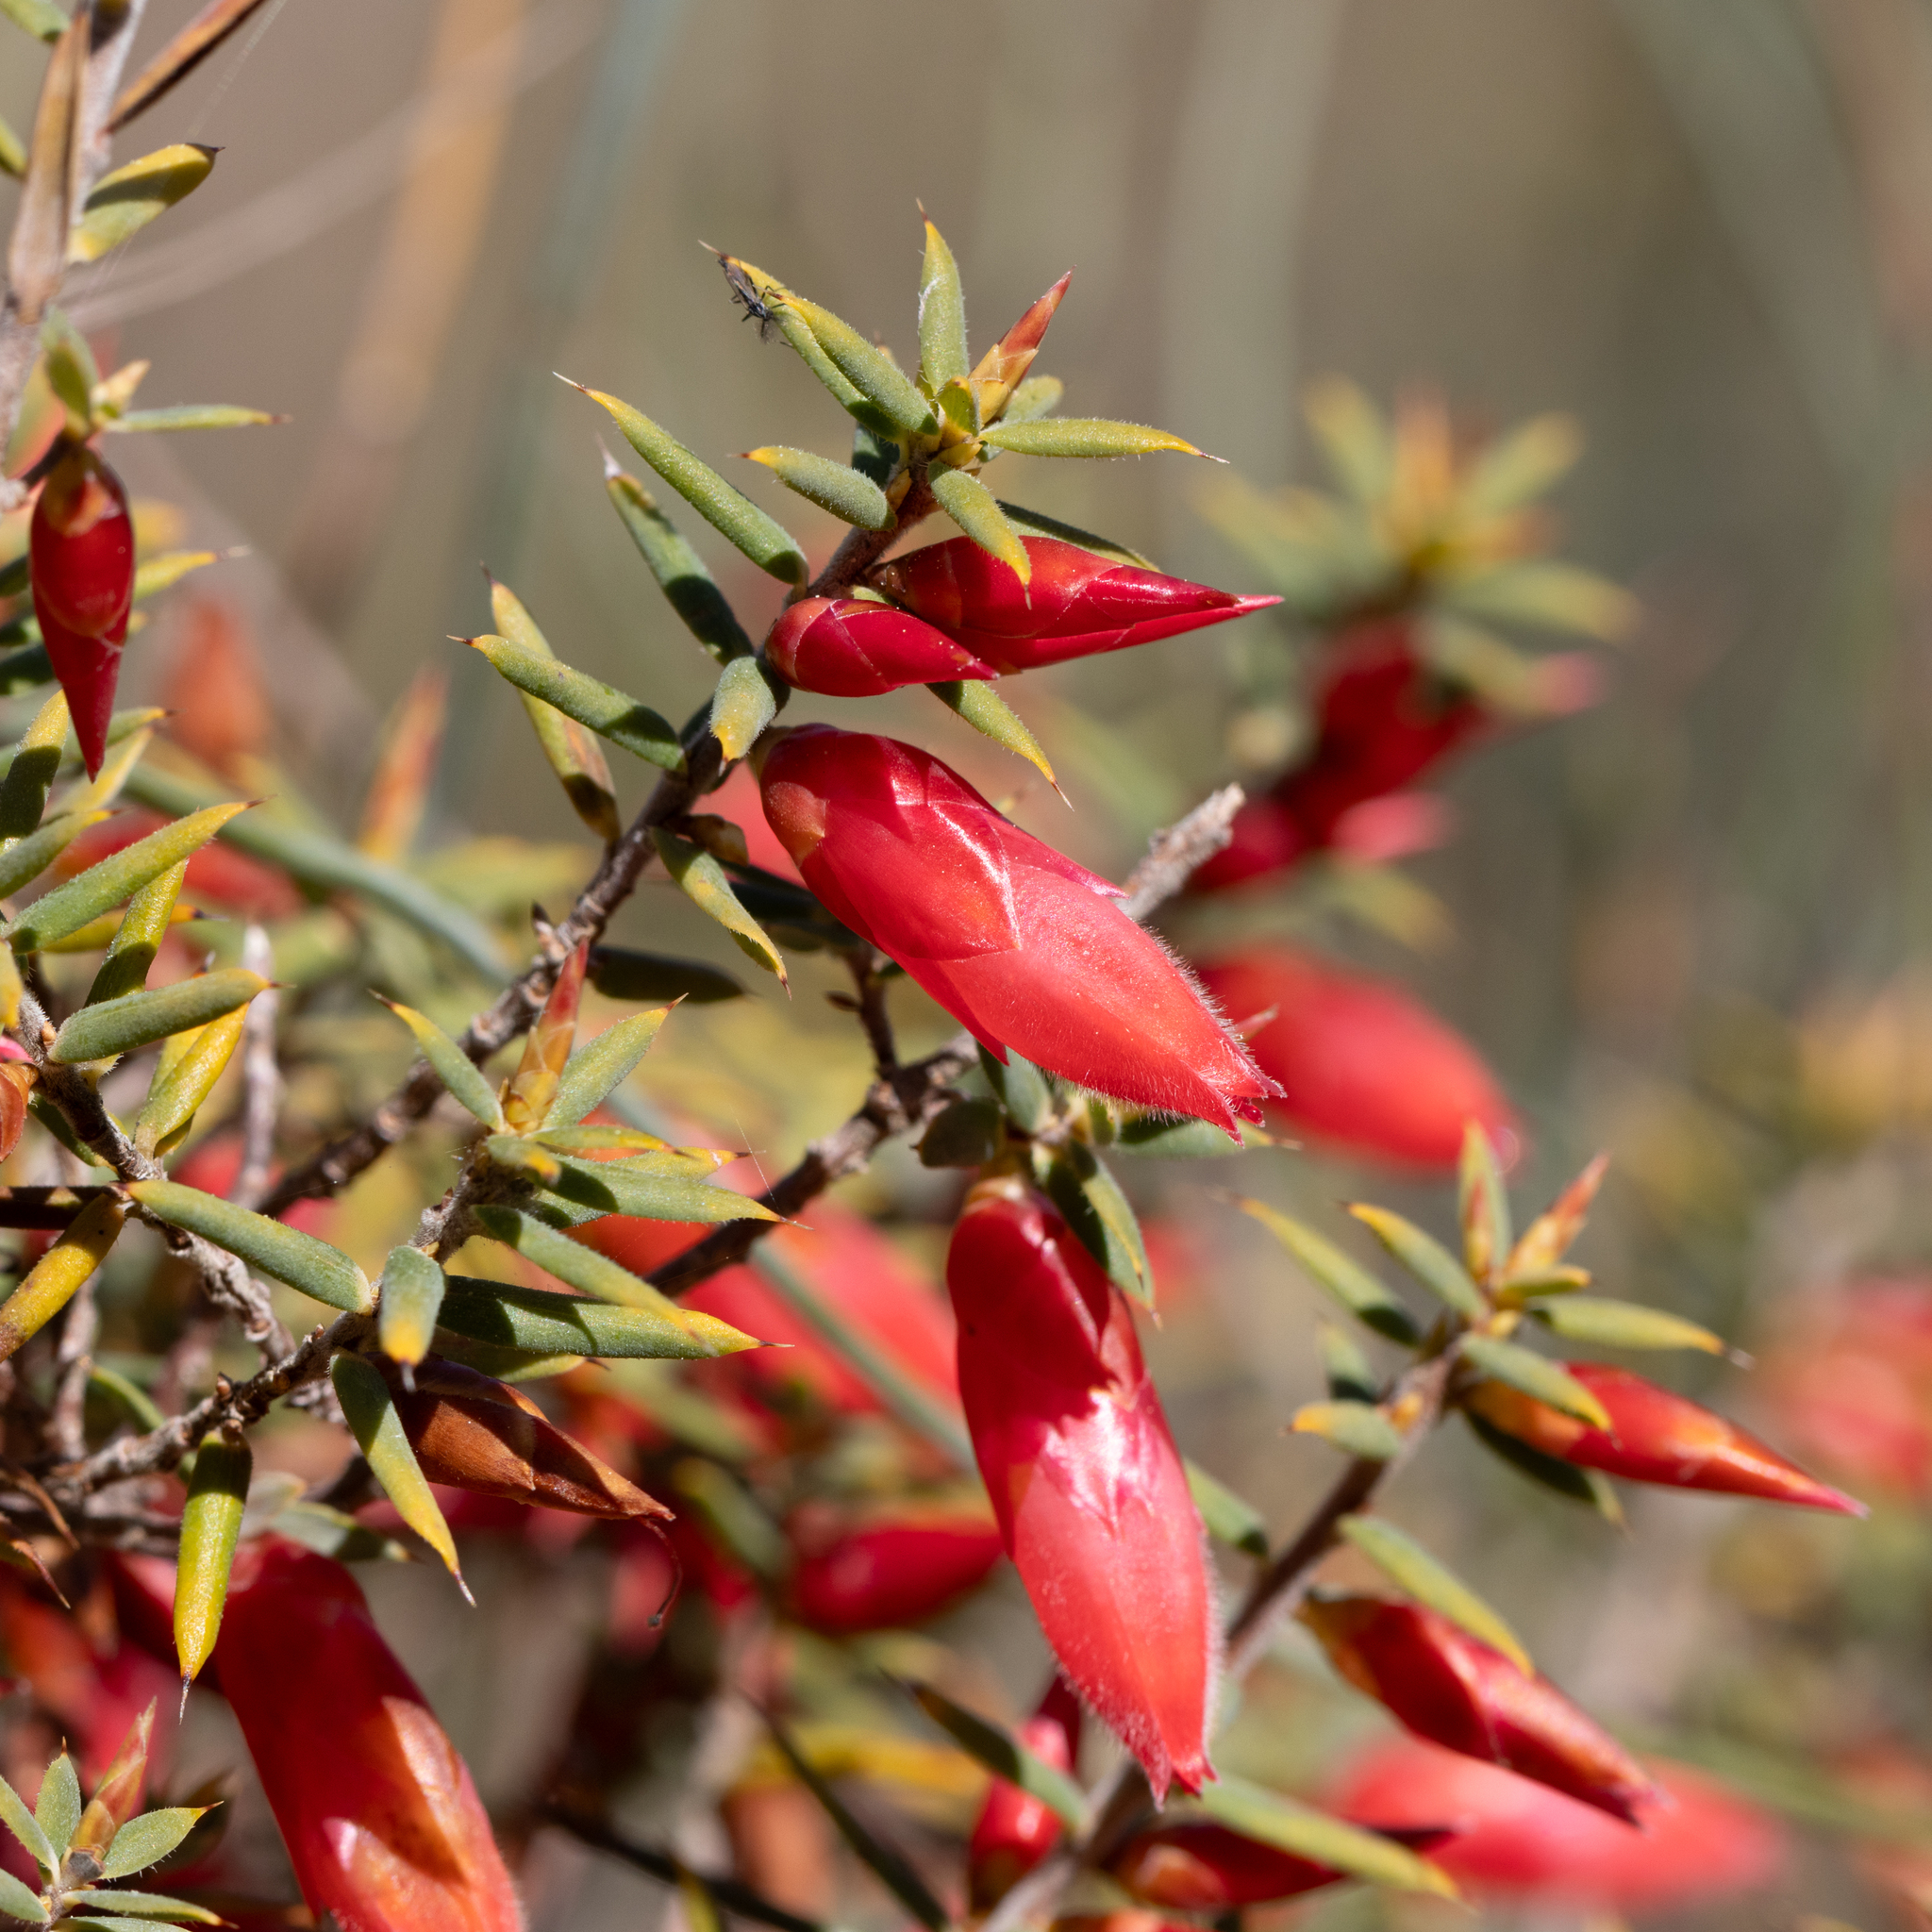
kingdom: Plantae
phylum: Tracheophyta
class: Magnoliopsida
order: Ericales
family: Ericaceae
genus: Stenanthera
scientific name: Stenanthera conostephioides
